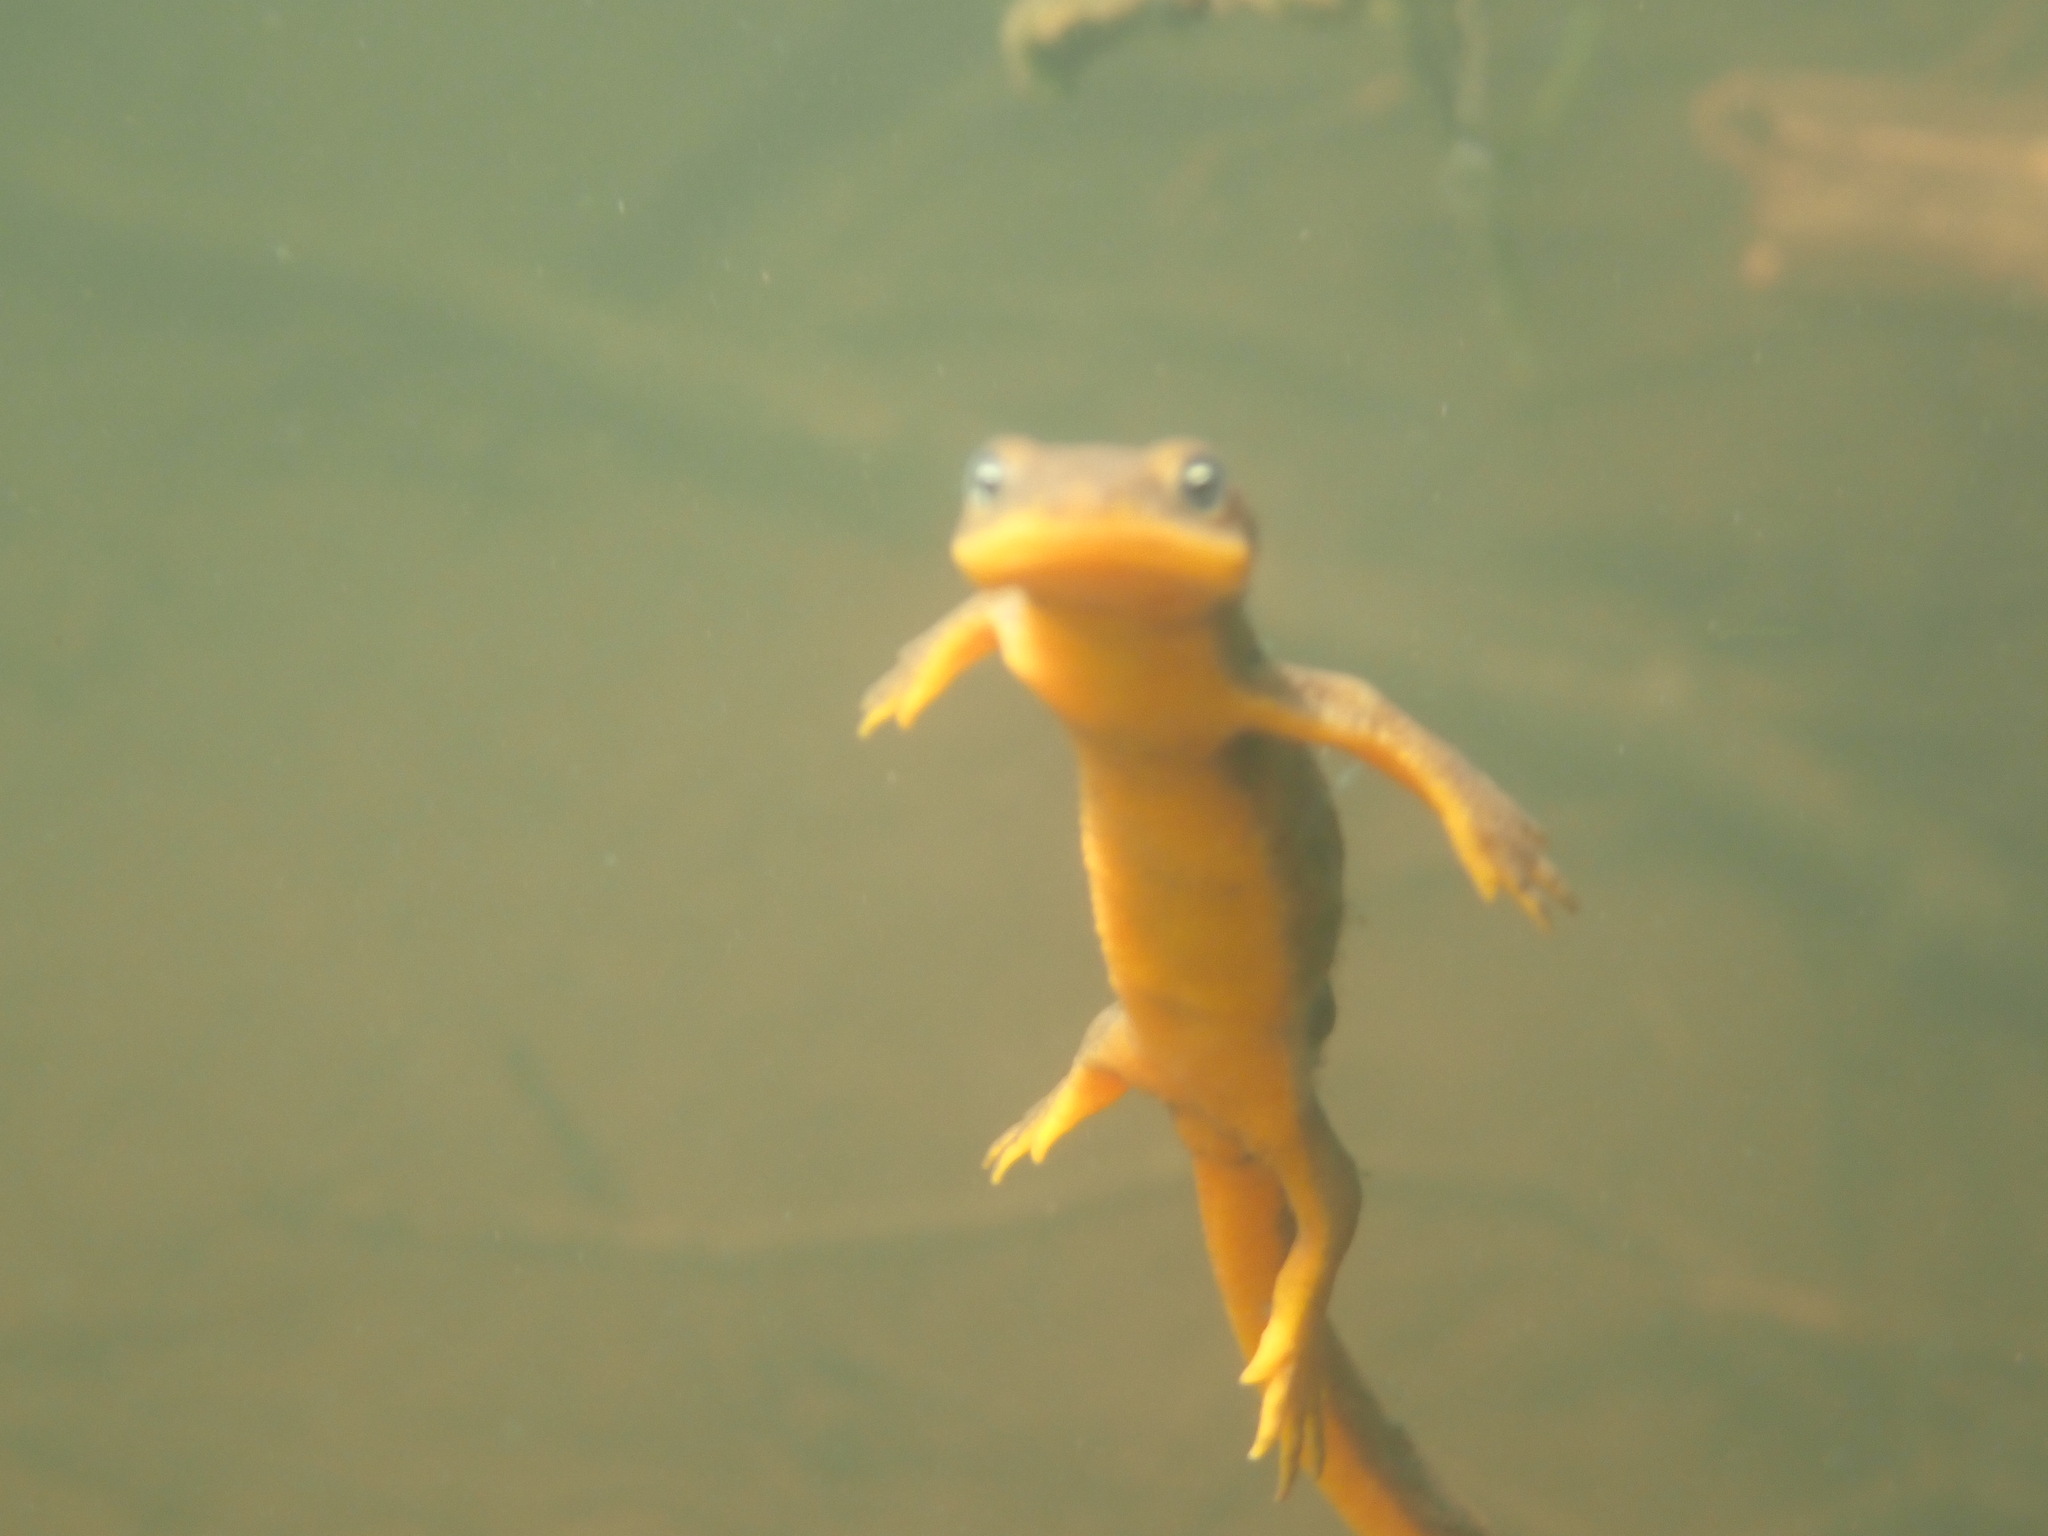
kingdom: Animalia
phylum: Chordata
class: Amphibia
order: Caudata
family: Salamandridae
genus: Taricha
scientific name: Taricha granulosa
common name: Roughskin newt
